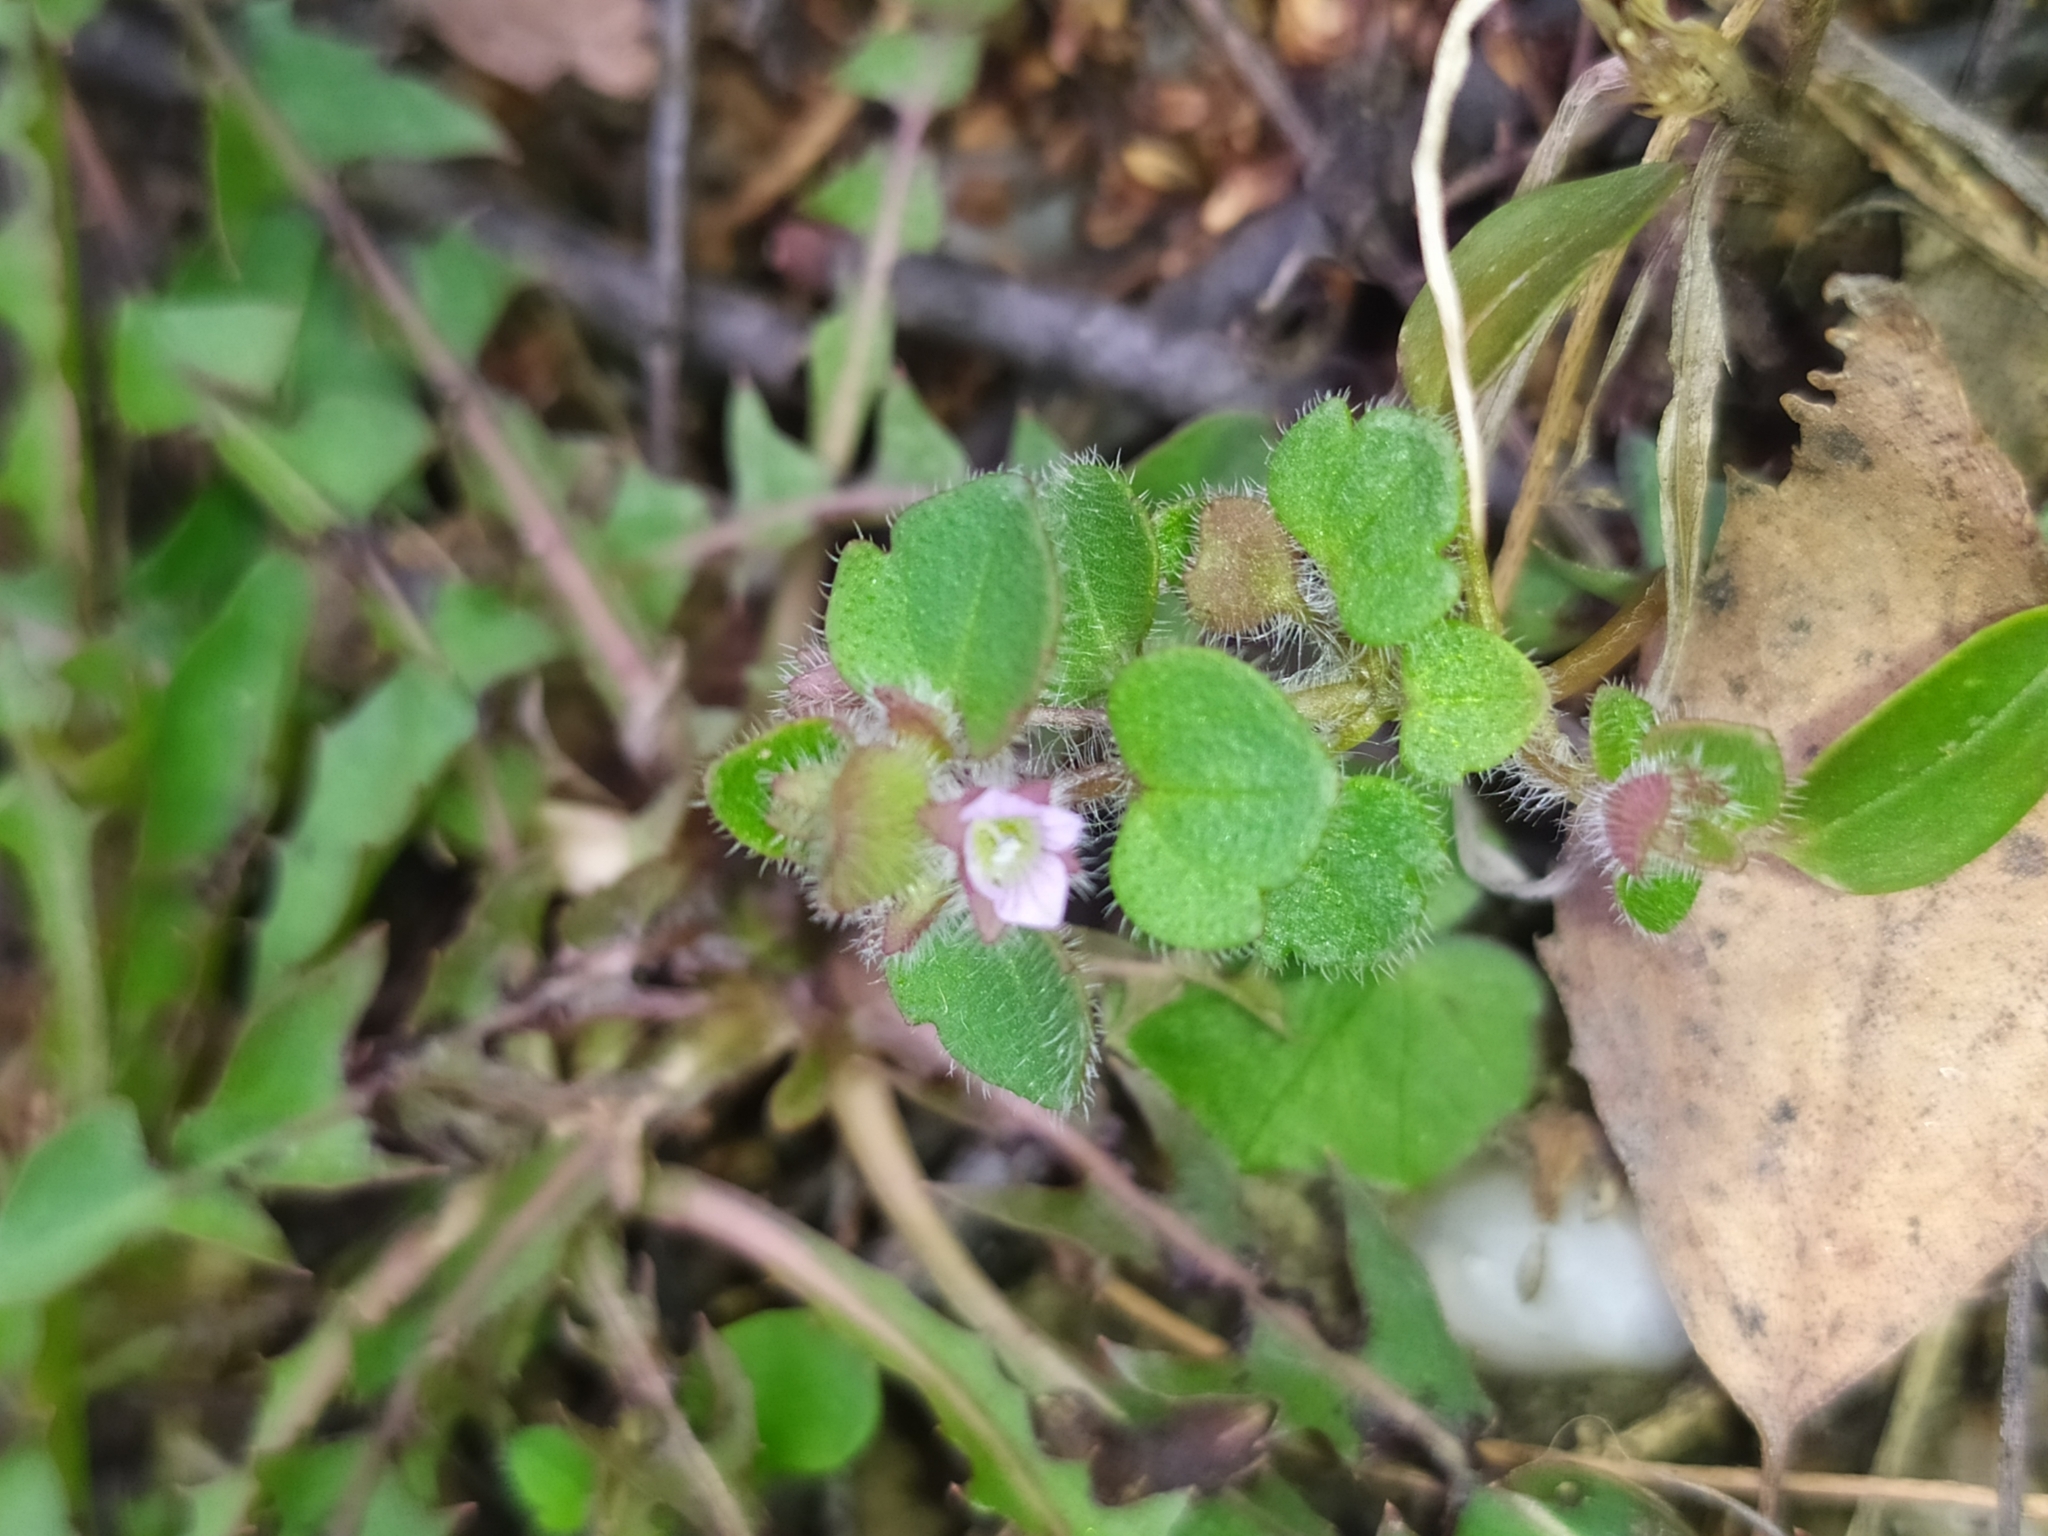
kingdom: Plantae
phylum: Tracheophyta
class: Magnoliopsida
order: Lamiales
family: Plantaginaceae
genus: Veronica
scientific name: Veronica sublobata
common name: False ivy-leaved speedwell
